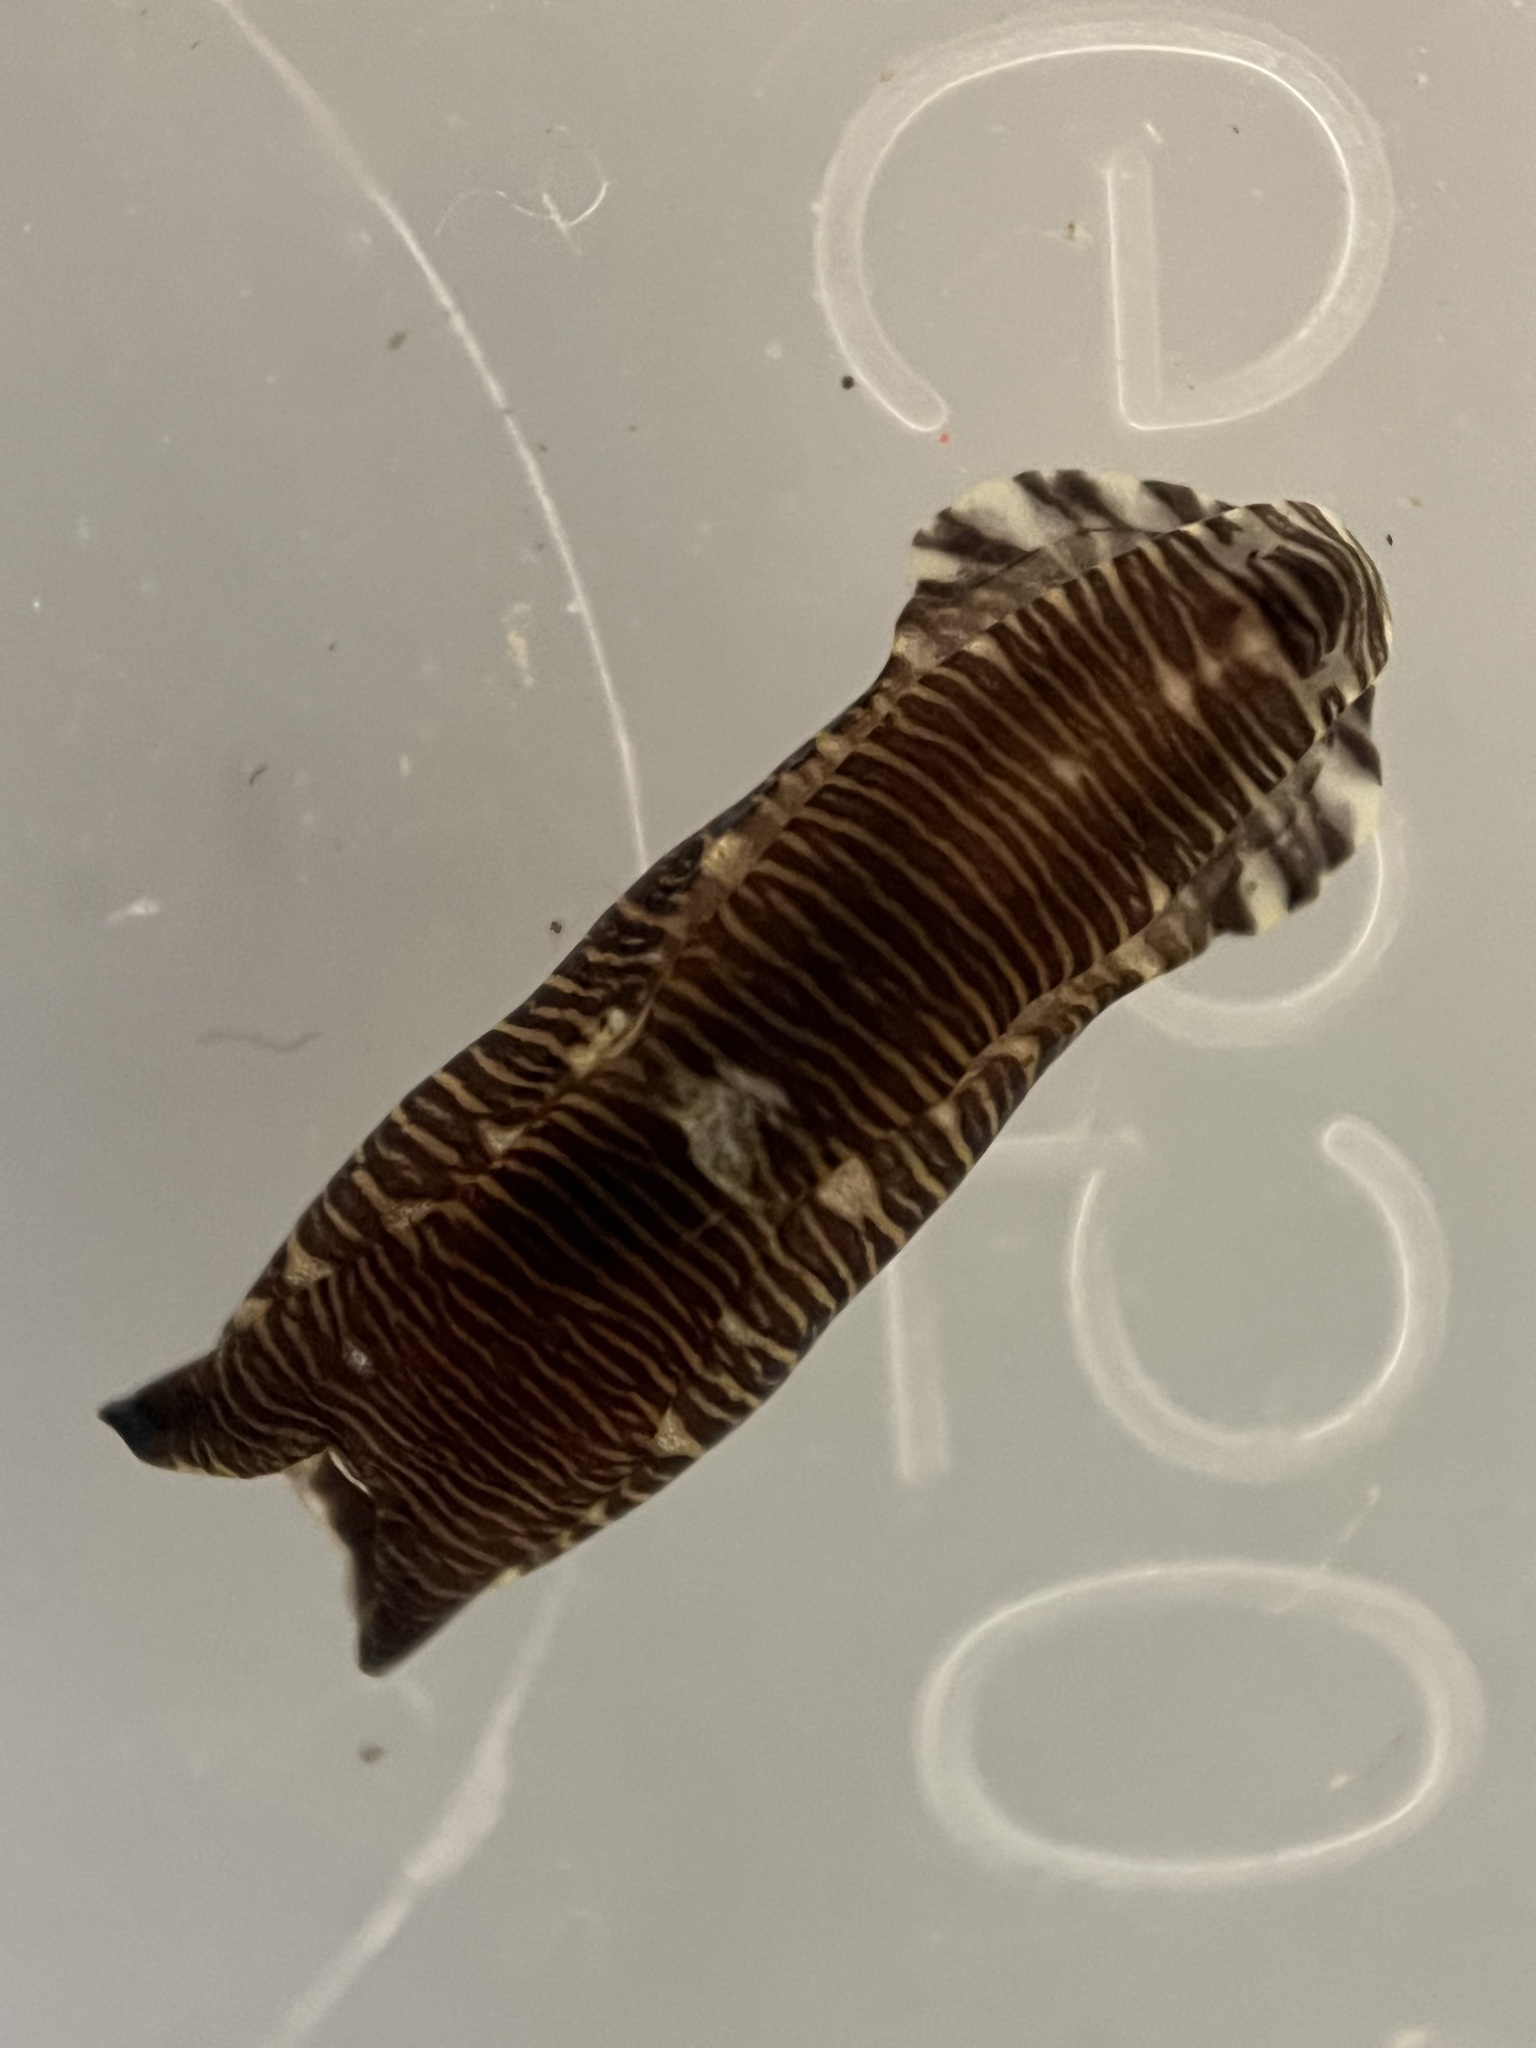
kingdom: Animalia
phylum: Mollusca
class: Gastropoda
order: Cephalaspidea
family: Aglajidae
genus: Tubulophilinopsis
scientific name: Tubulophilinopsis lineolata
